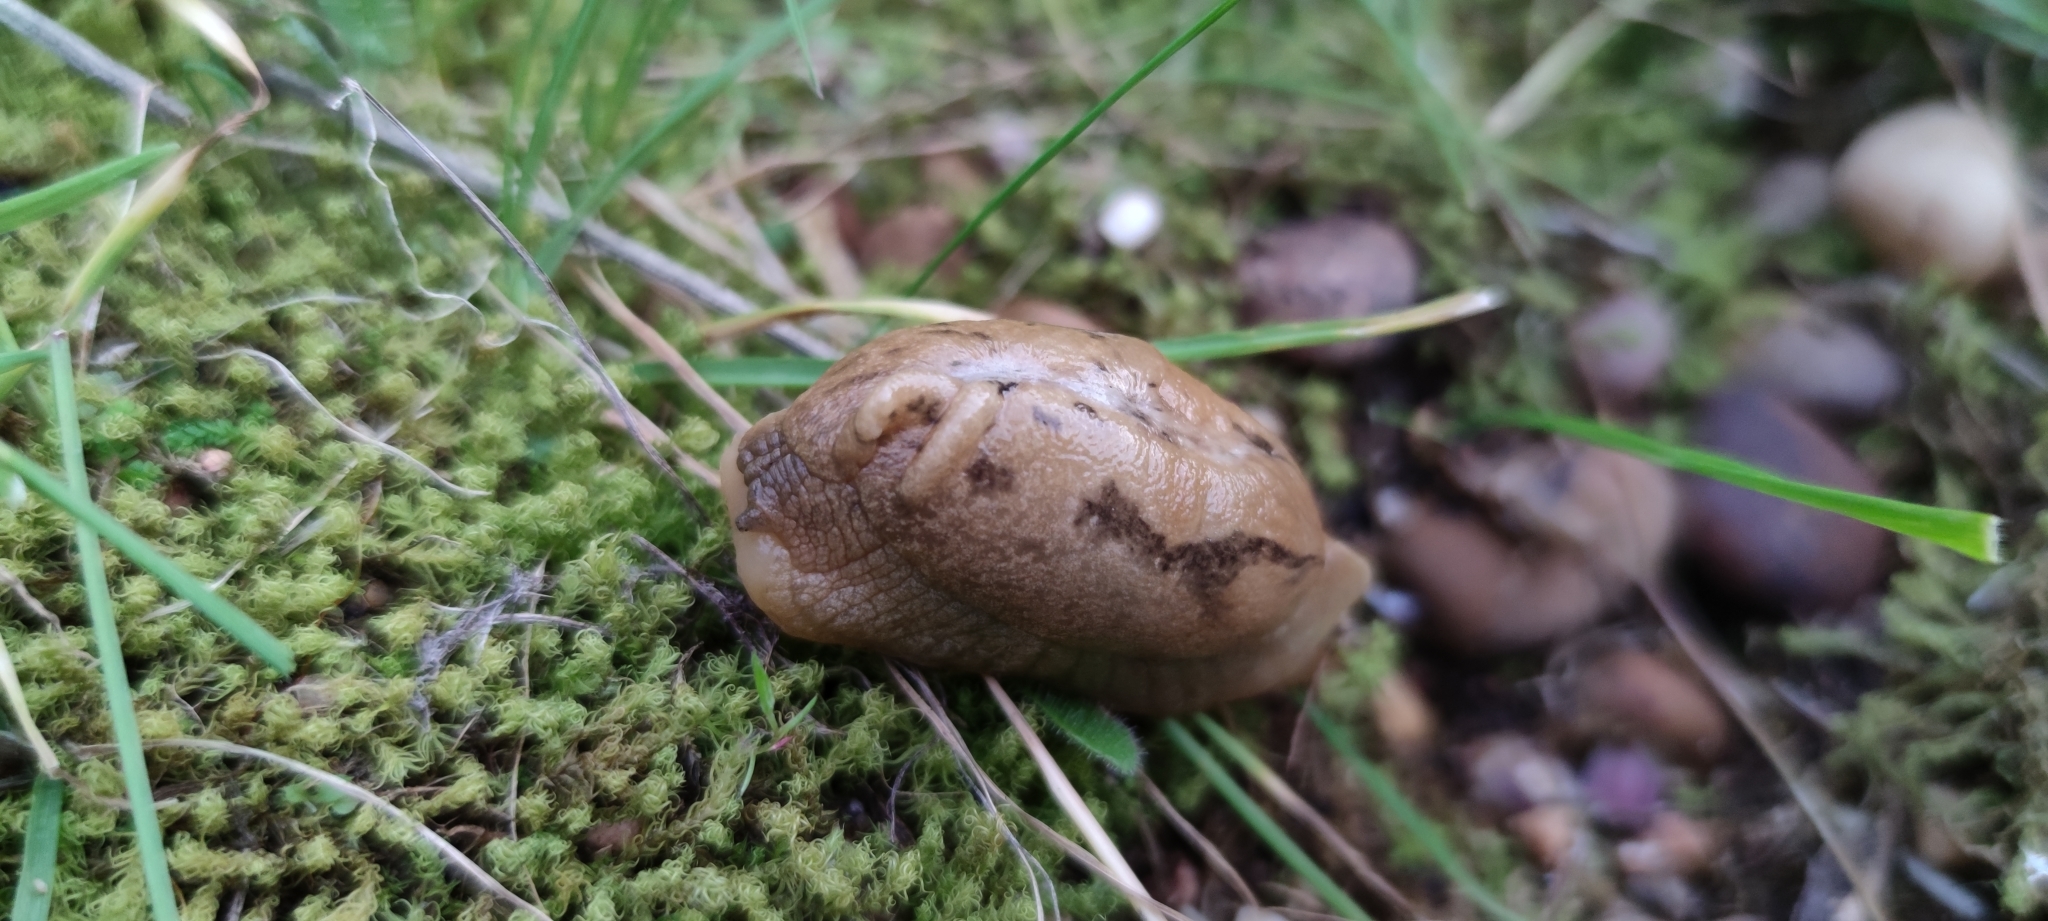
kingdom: Animalia
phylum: Mollusca
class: Gastropoda
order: Stylommatophora
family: Parmacellidae
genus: Drusia
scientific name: Drusia valenciennii
